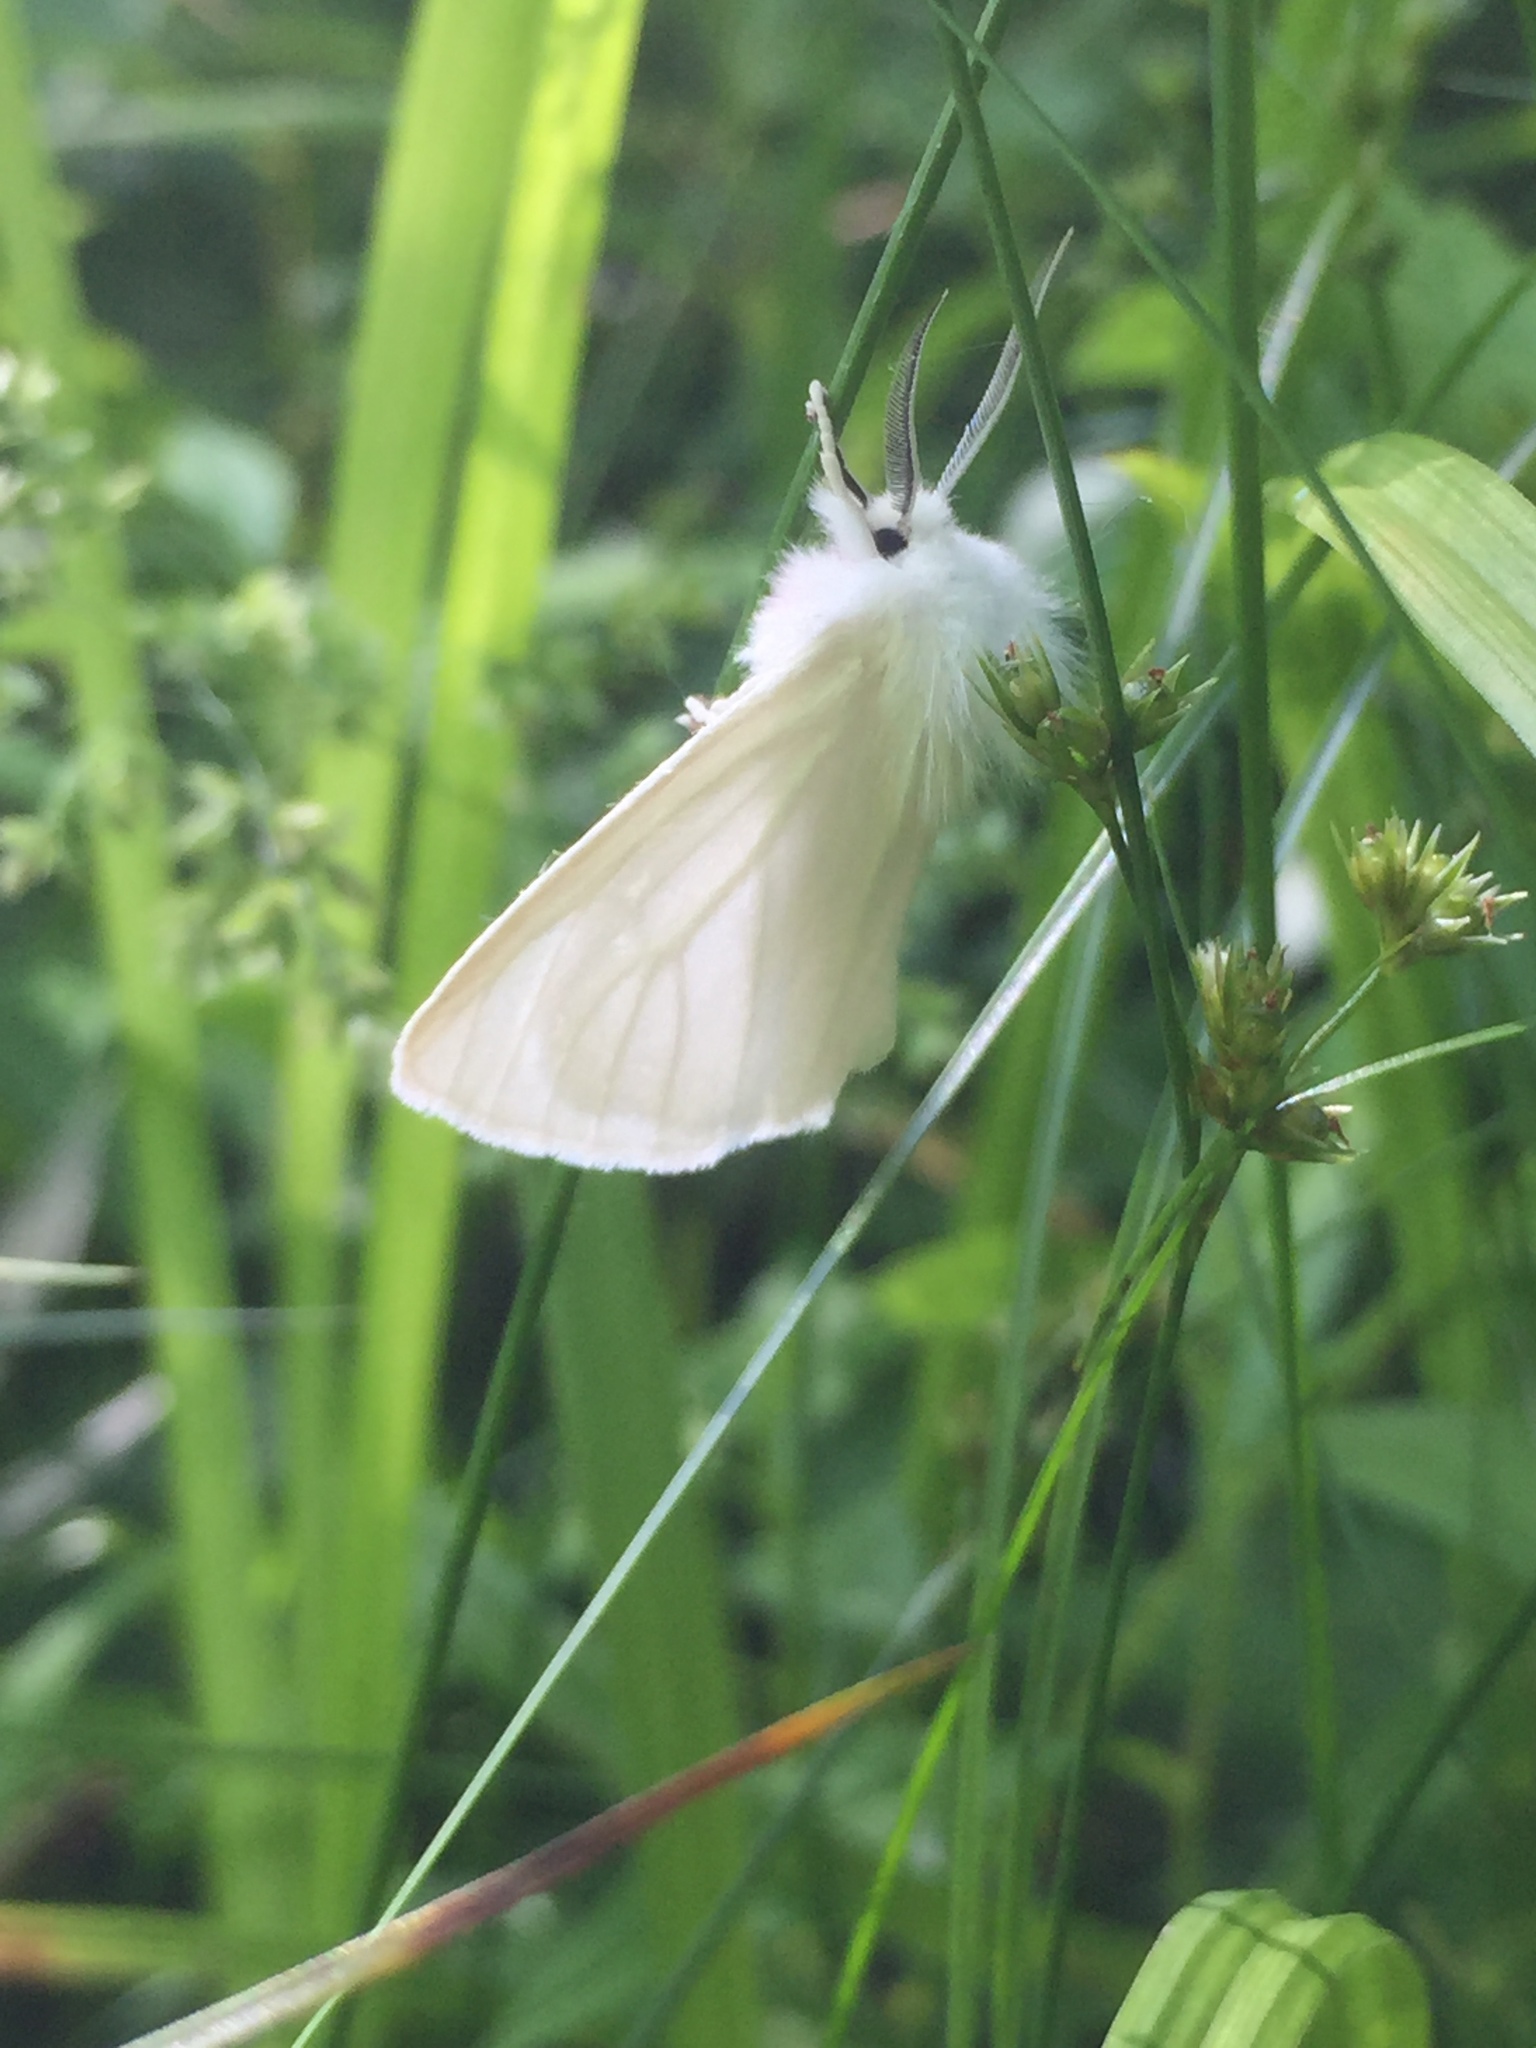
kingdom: Animalia
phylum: Arthropoda
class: Insecta
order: Lepidoptera
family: Erebidae
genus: Spilosoma
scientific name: Spilosoma latipennis
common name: Pink-legged tiger moth
